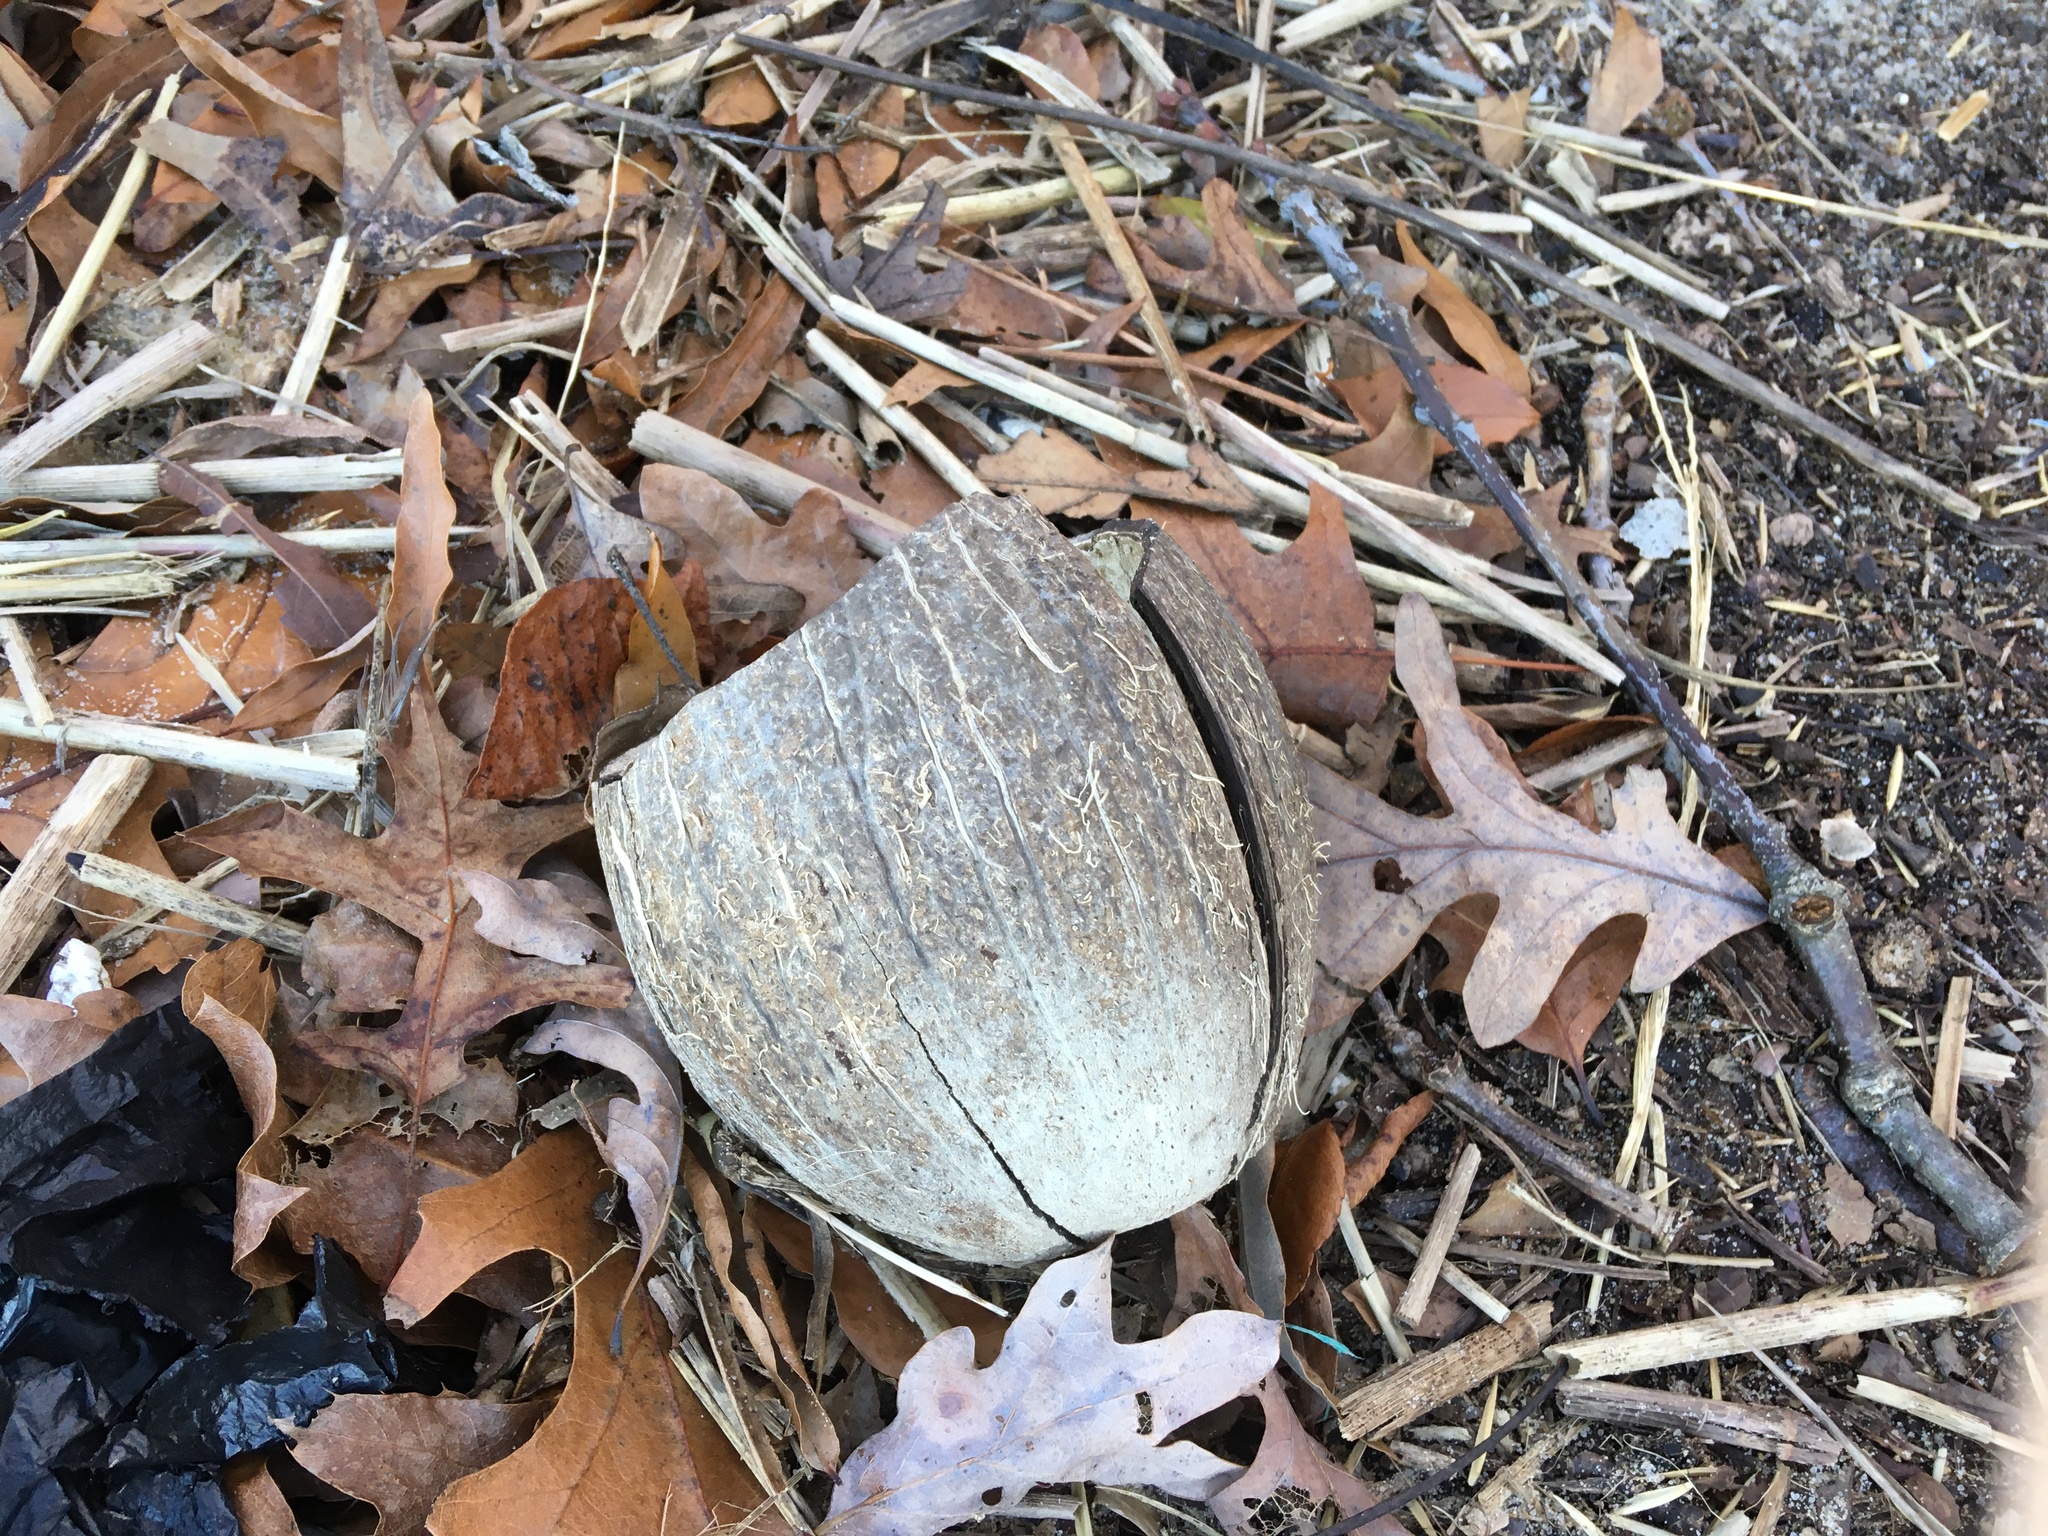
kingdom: Plantae
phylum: Tracheophyta
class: Liliopsida
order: Arecales
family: Arecaceae
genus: Cocos
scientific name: Cocos nucifera
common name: Coconut palm
